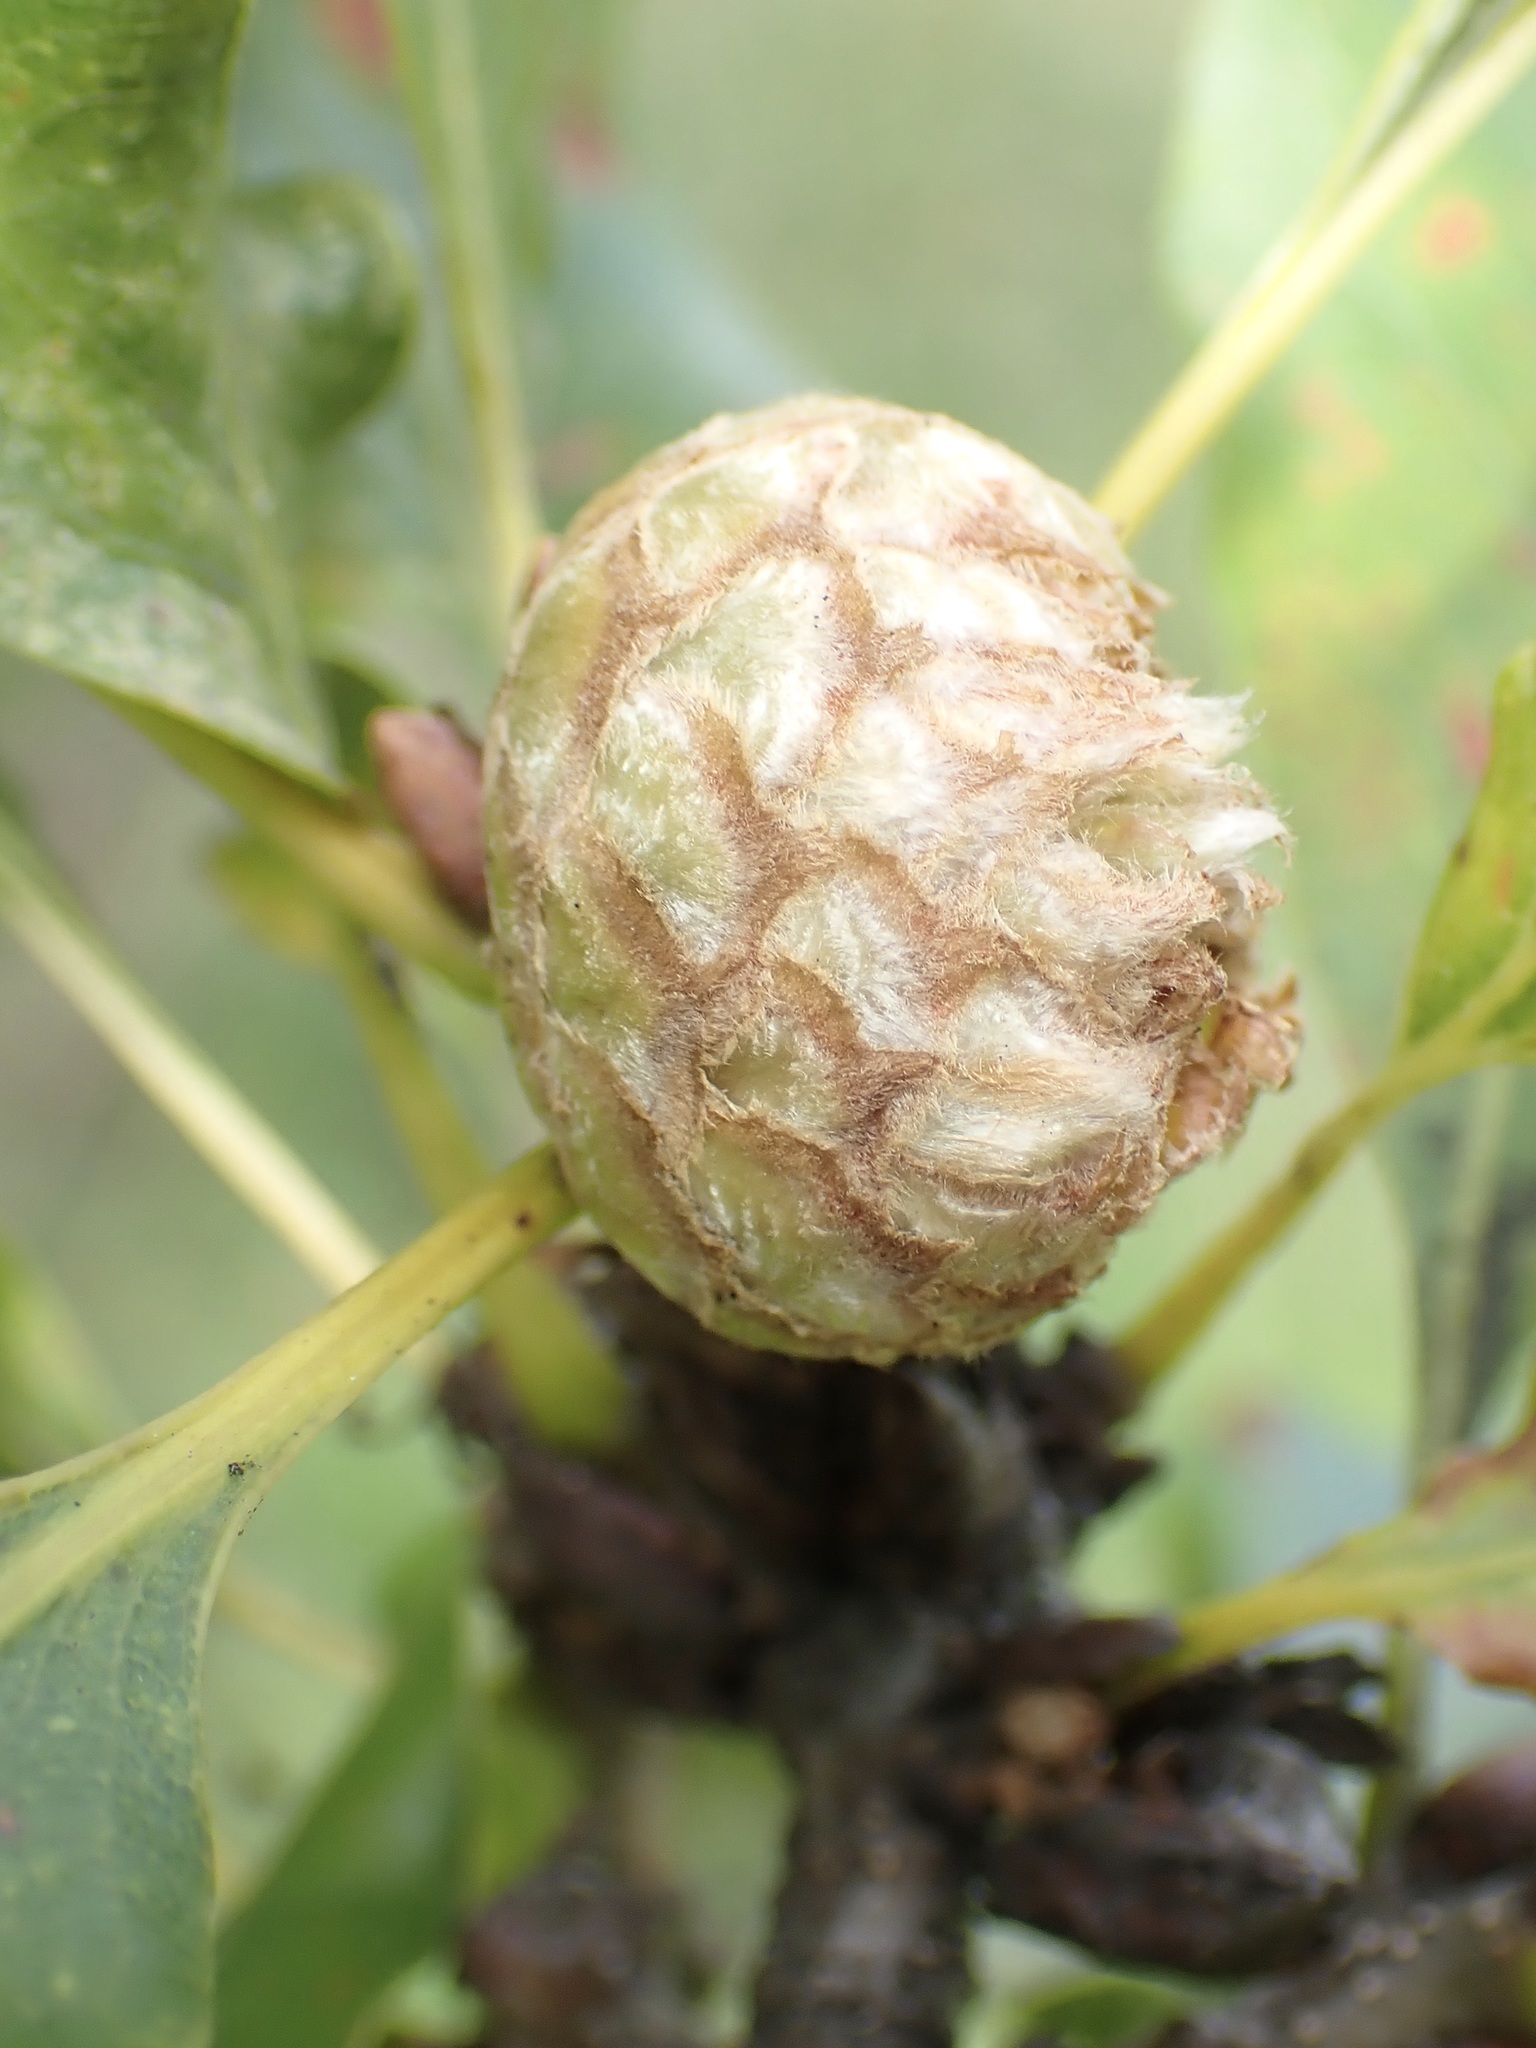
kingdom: Animalia
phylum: Arthropoda
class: Insecta
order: Hymenoptera
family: Cynipidae
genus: Andricus
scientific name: Andricus foecundatrix
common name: Artichoke gall
